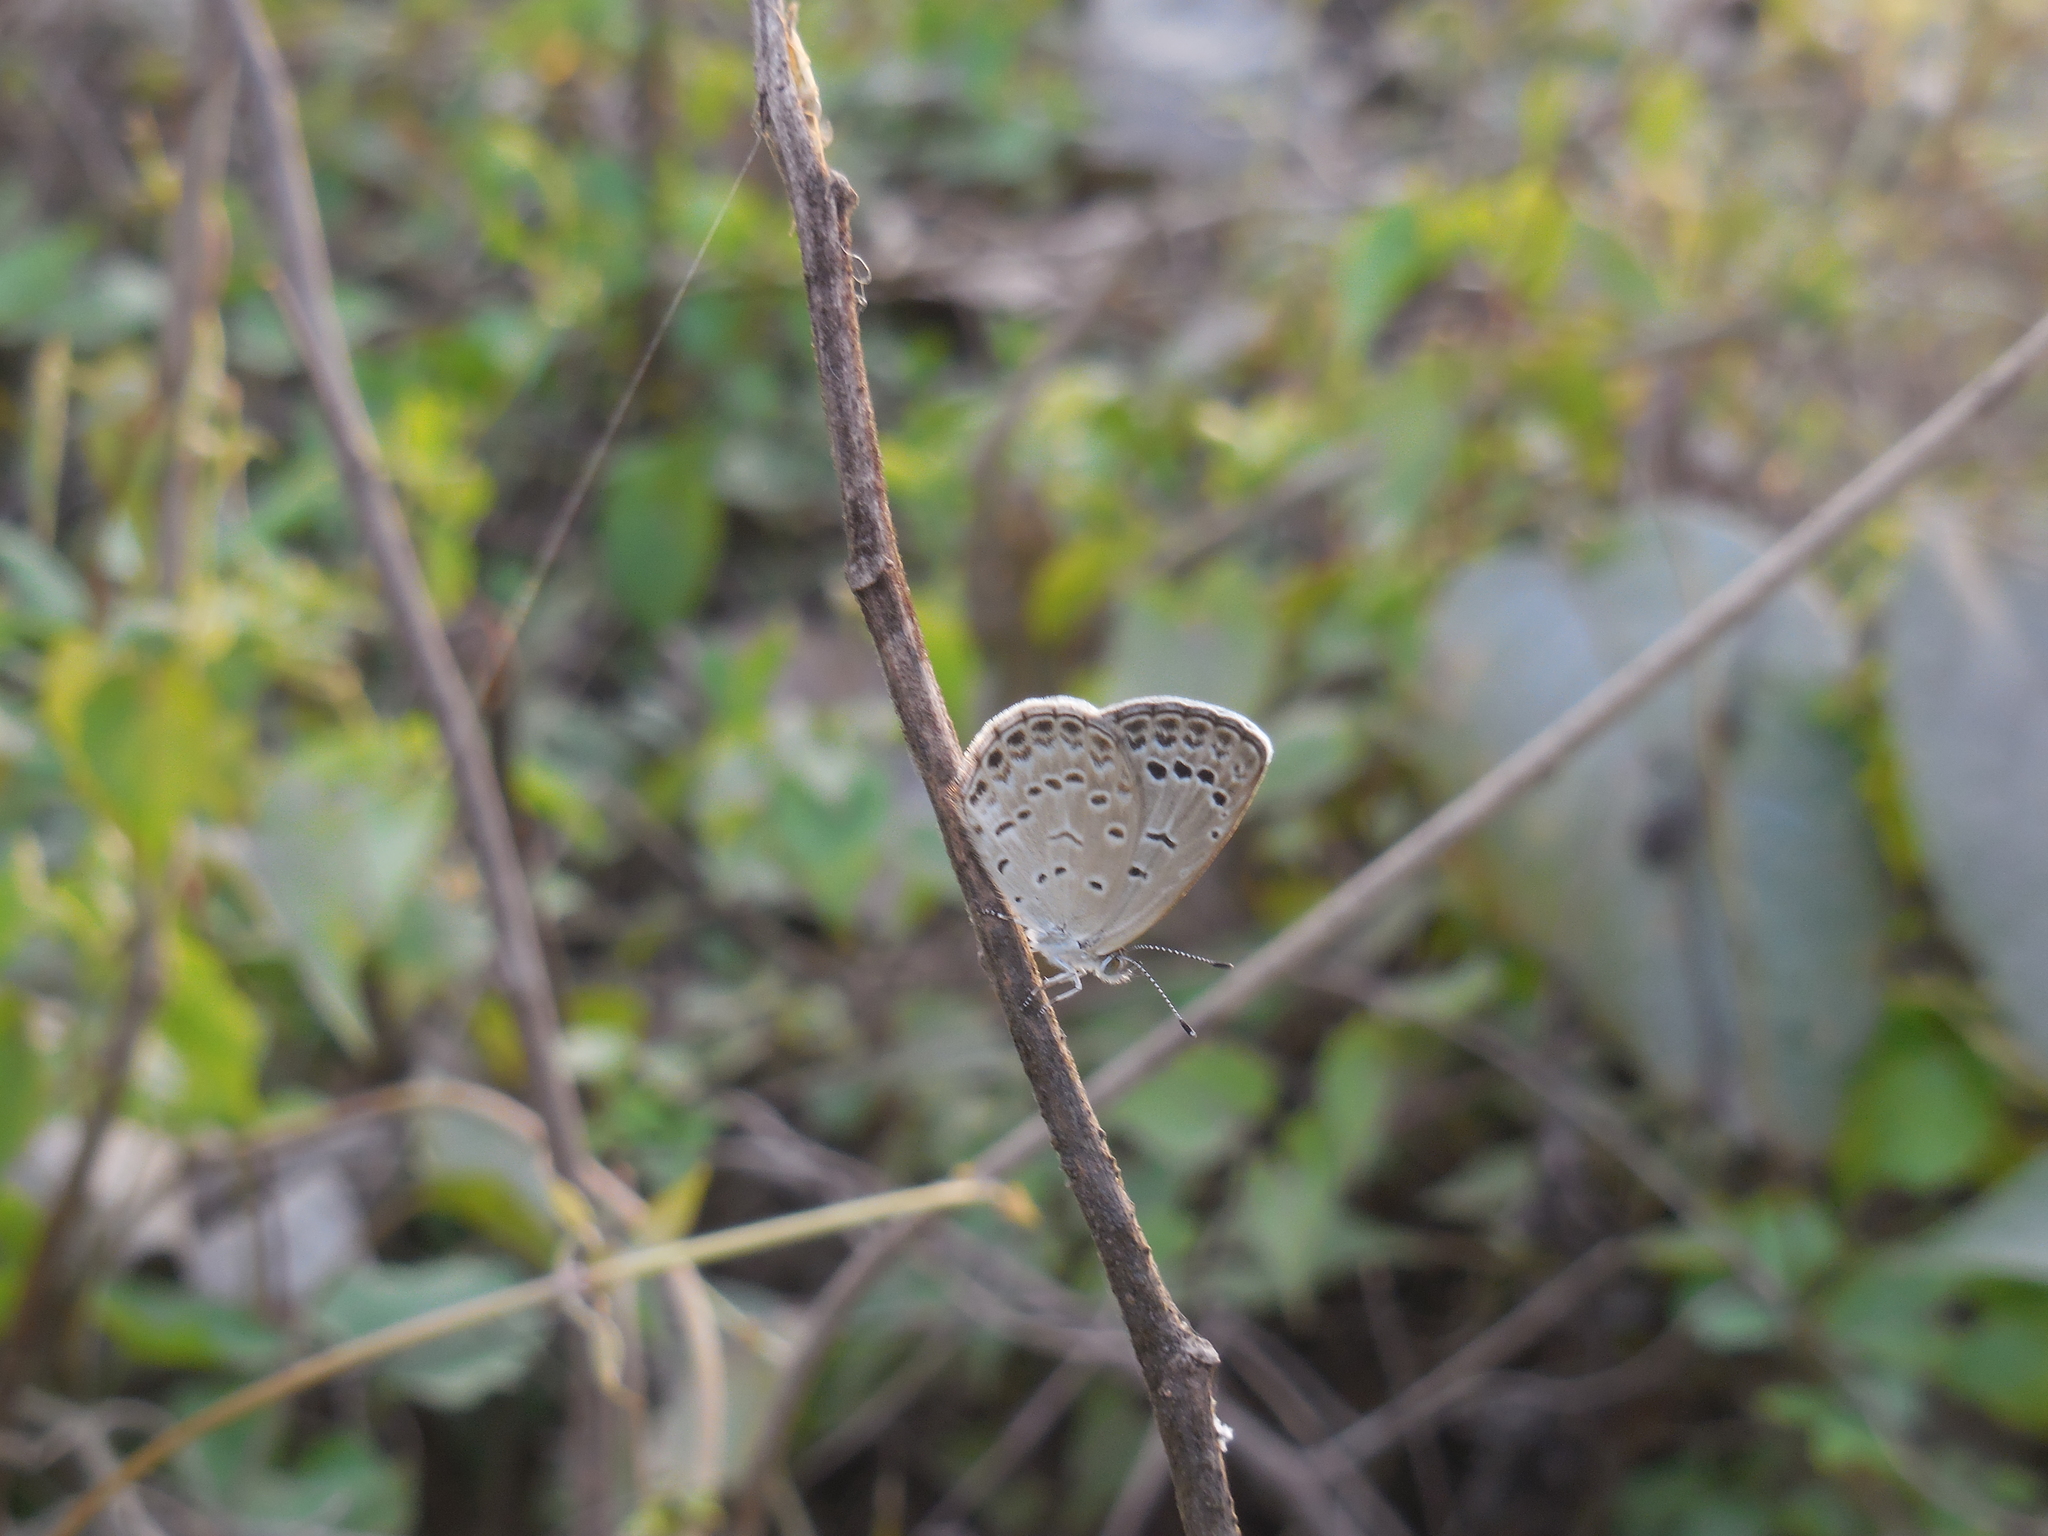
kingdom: Animalia
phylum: Arthropoda
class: Insecta
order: Lepidoptera
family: Lycaenidae
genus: Pseudozizeeria
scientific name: Pseudozizeeria maha
